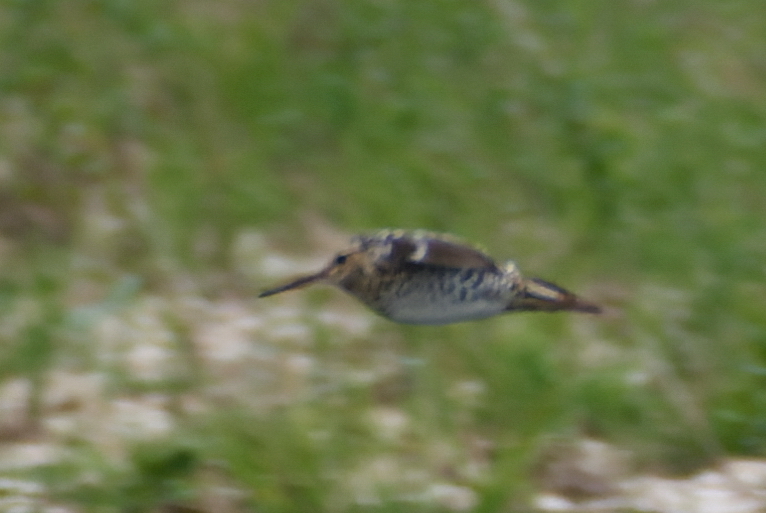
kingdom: Animalia
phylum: Chordata
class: Aves
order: Charadriiformes
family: Scolopacidae
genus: Gallinago
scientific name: Gallinago media
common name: Great snipe
